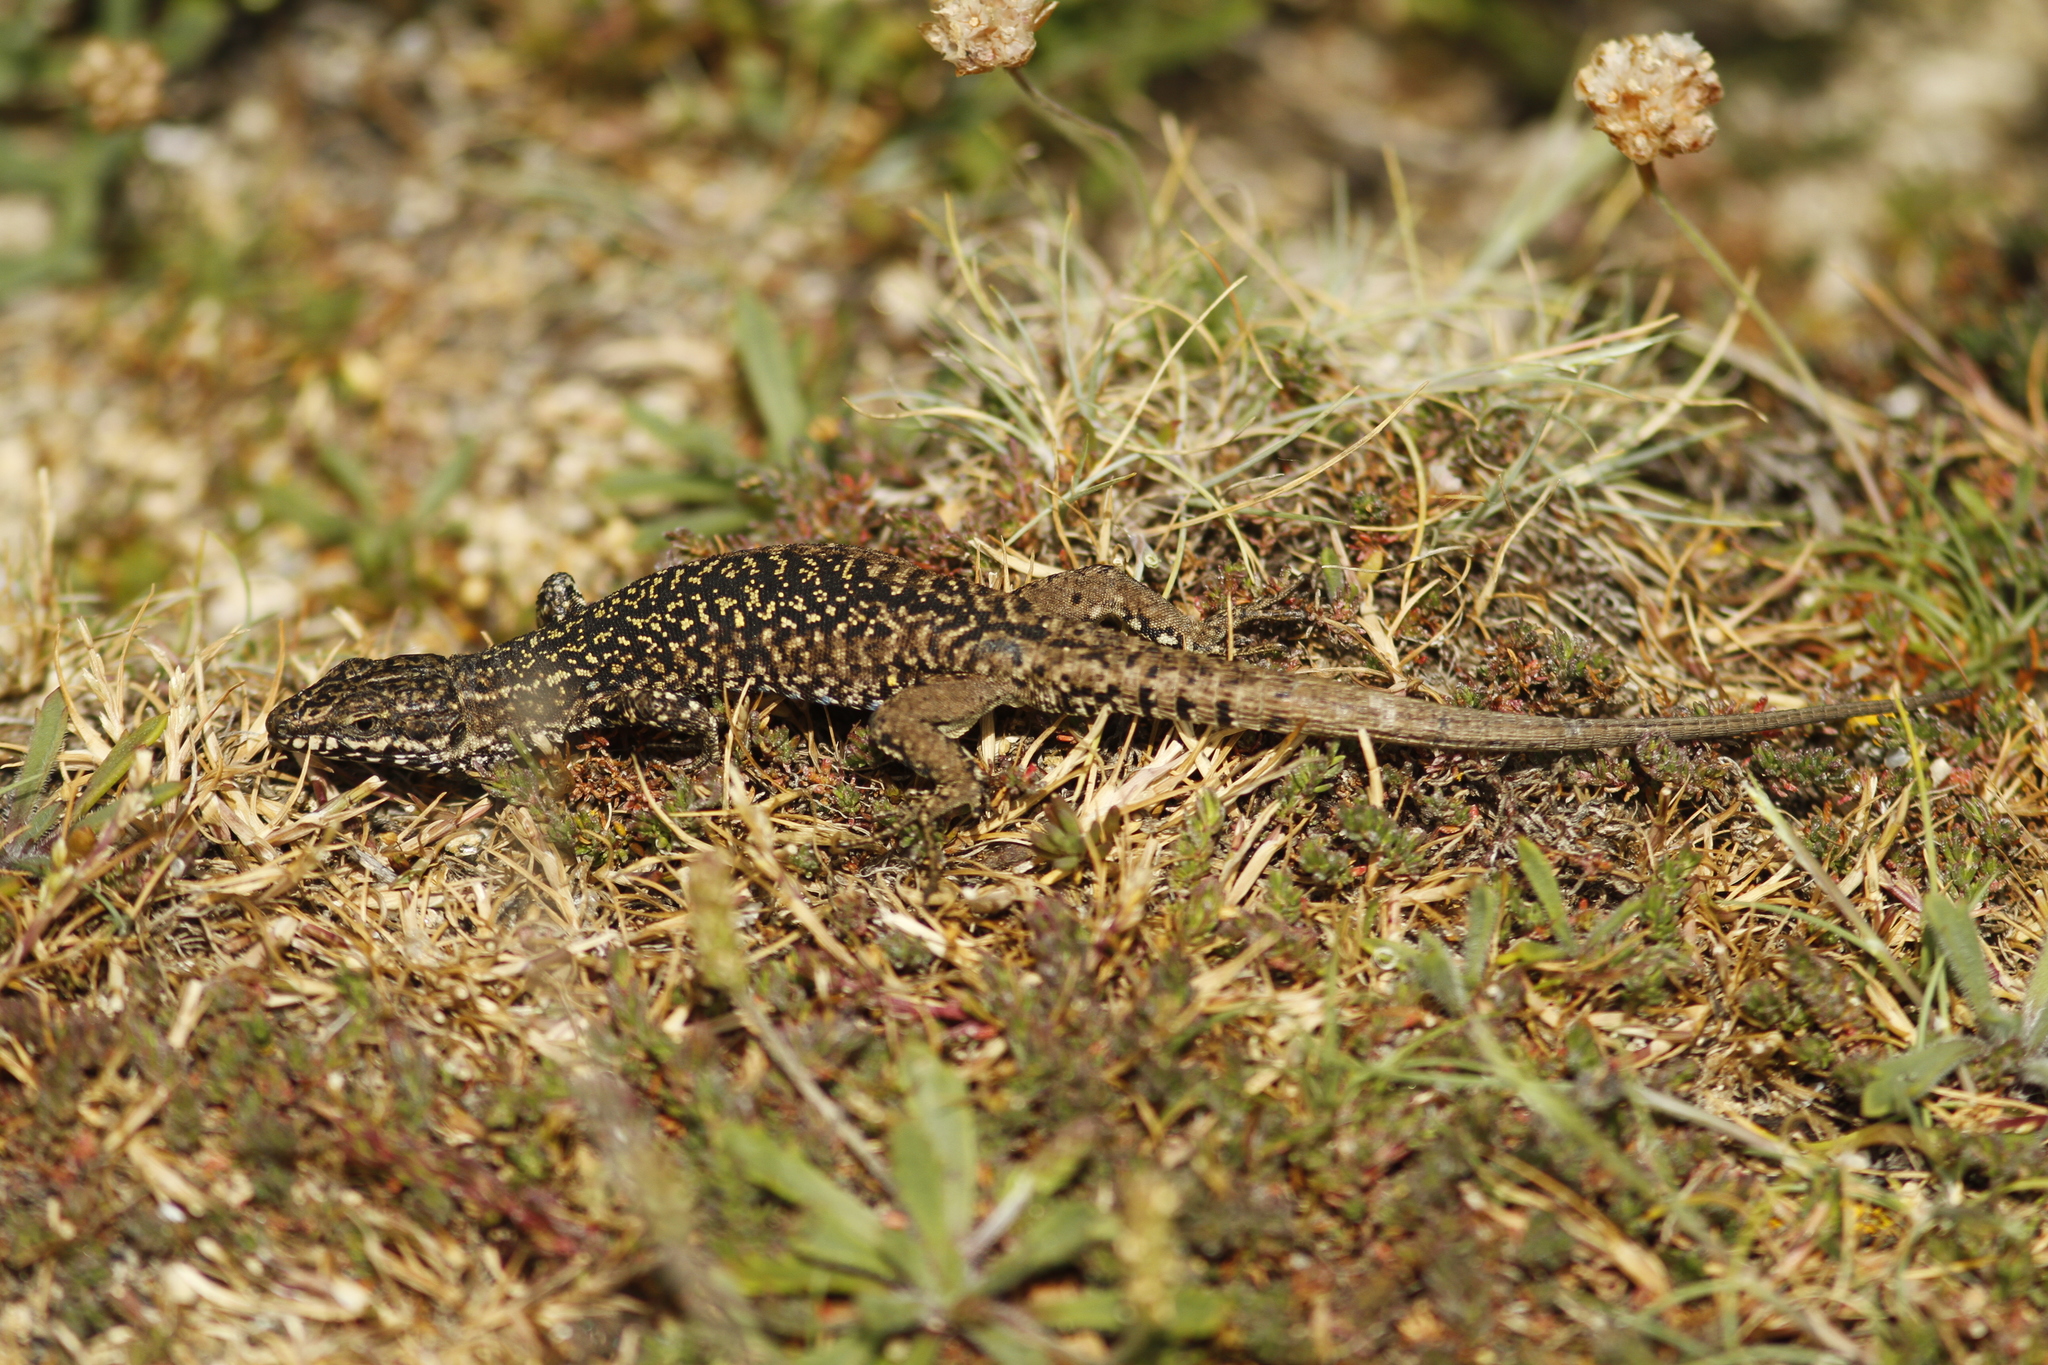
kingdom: Animalia
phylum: Chordata
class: Squamata
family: Lacertidae
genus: Podarcis
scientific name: Podarcis muralis
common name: Common wall lizard
